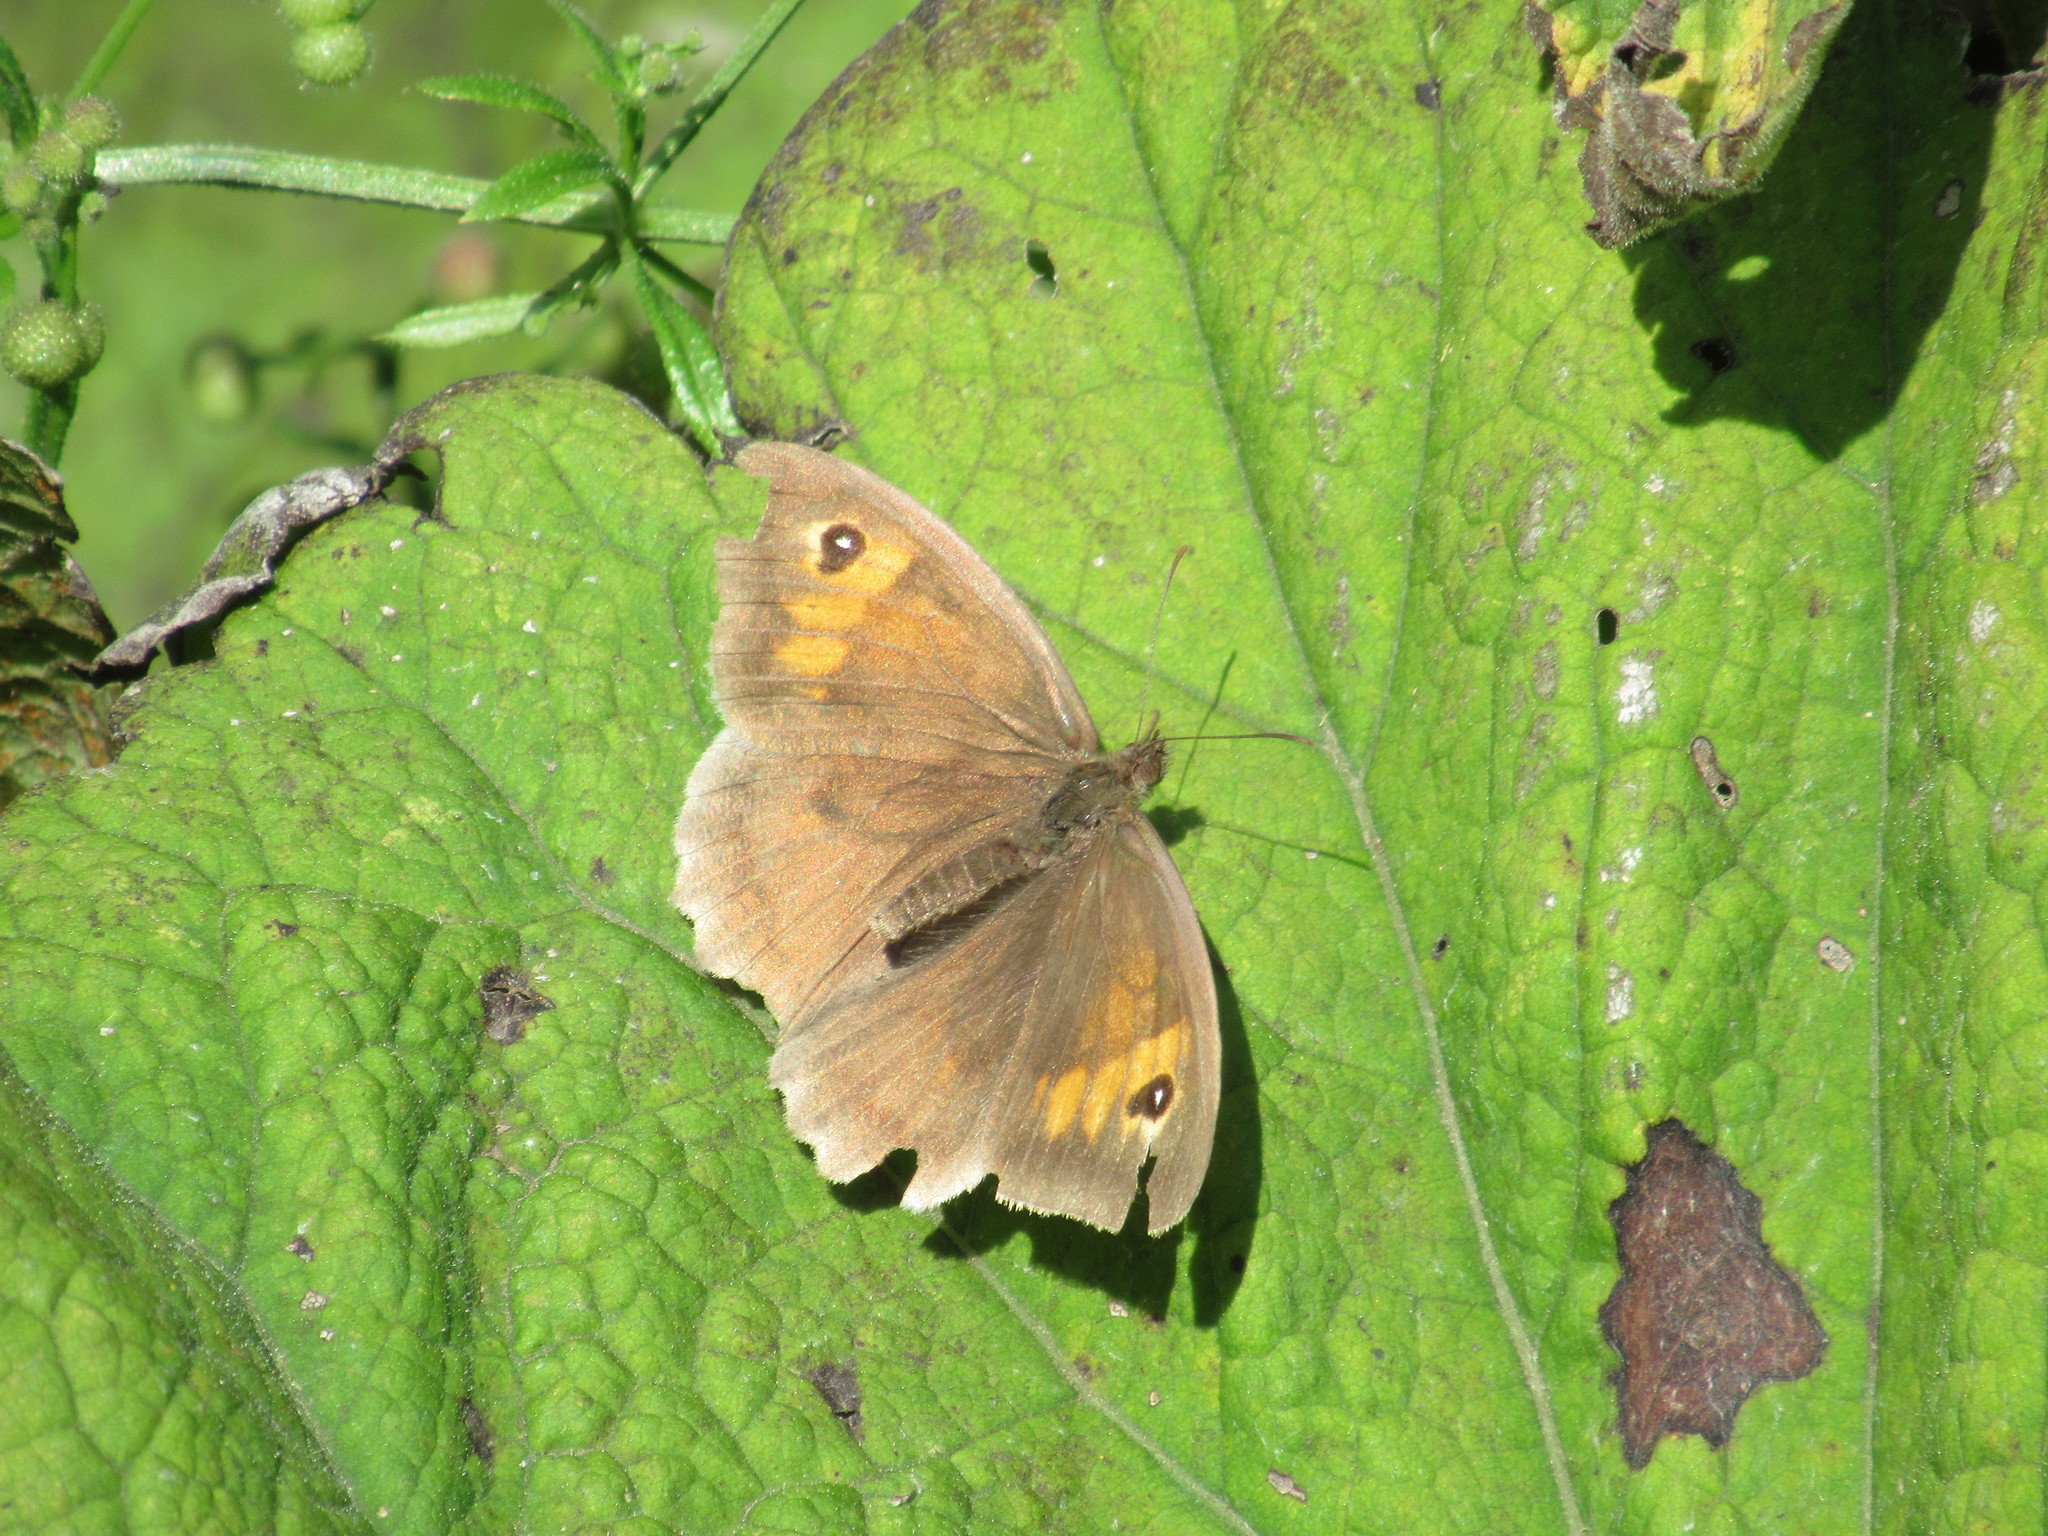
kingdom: Animalia
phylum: Arthropoda
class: Insecta
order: Lepidoptera
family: Nymphalidae
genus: Maniola
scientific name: Maniola jurtina
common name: Meadow brown
